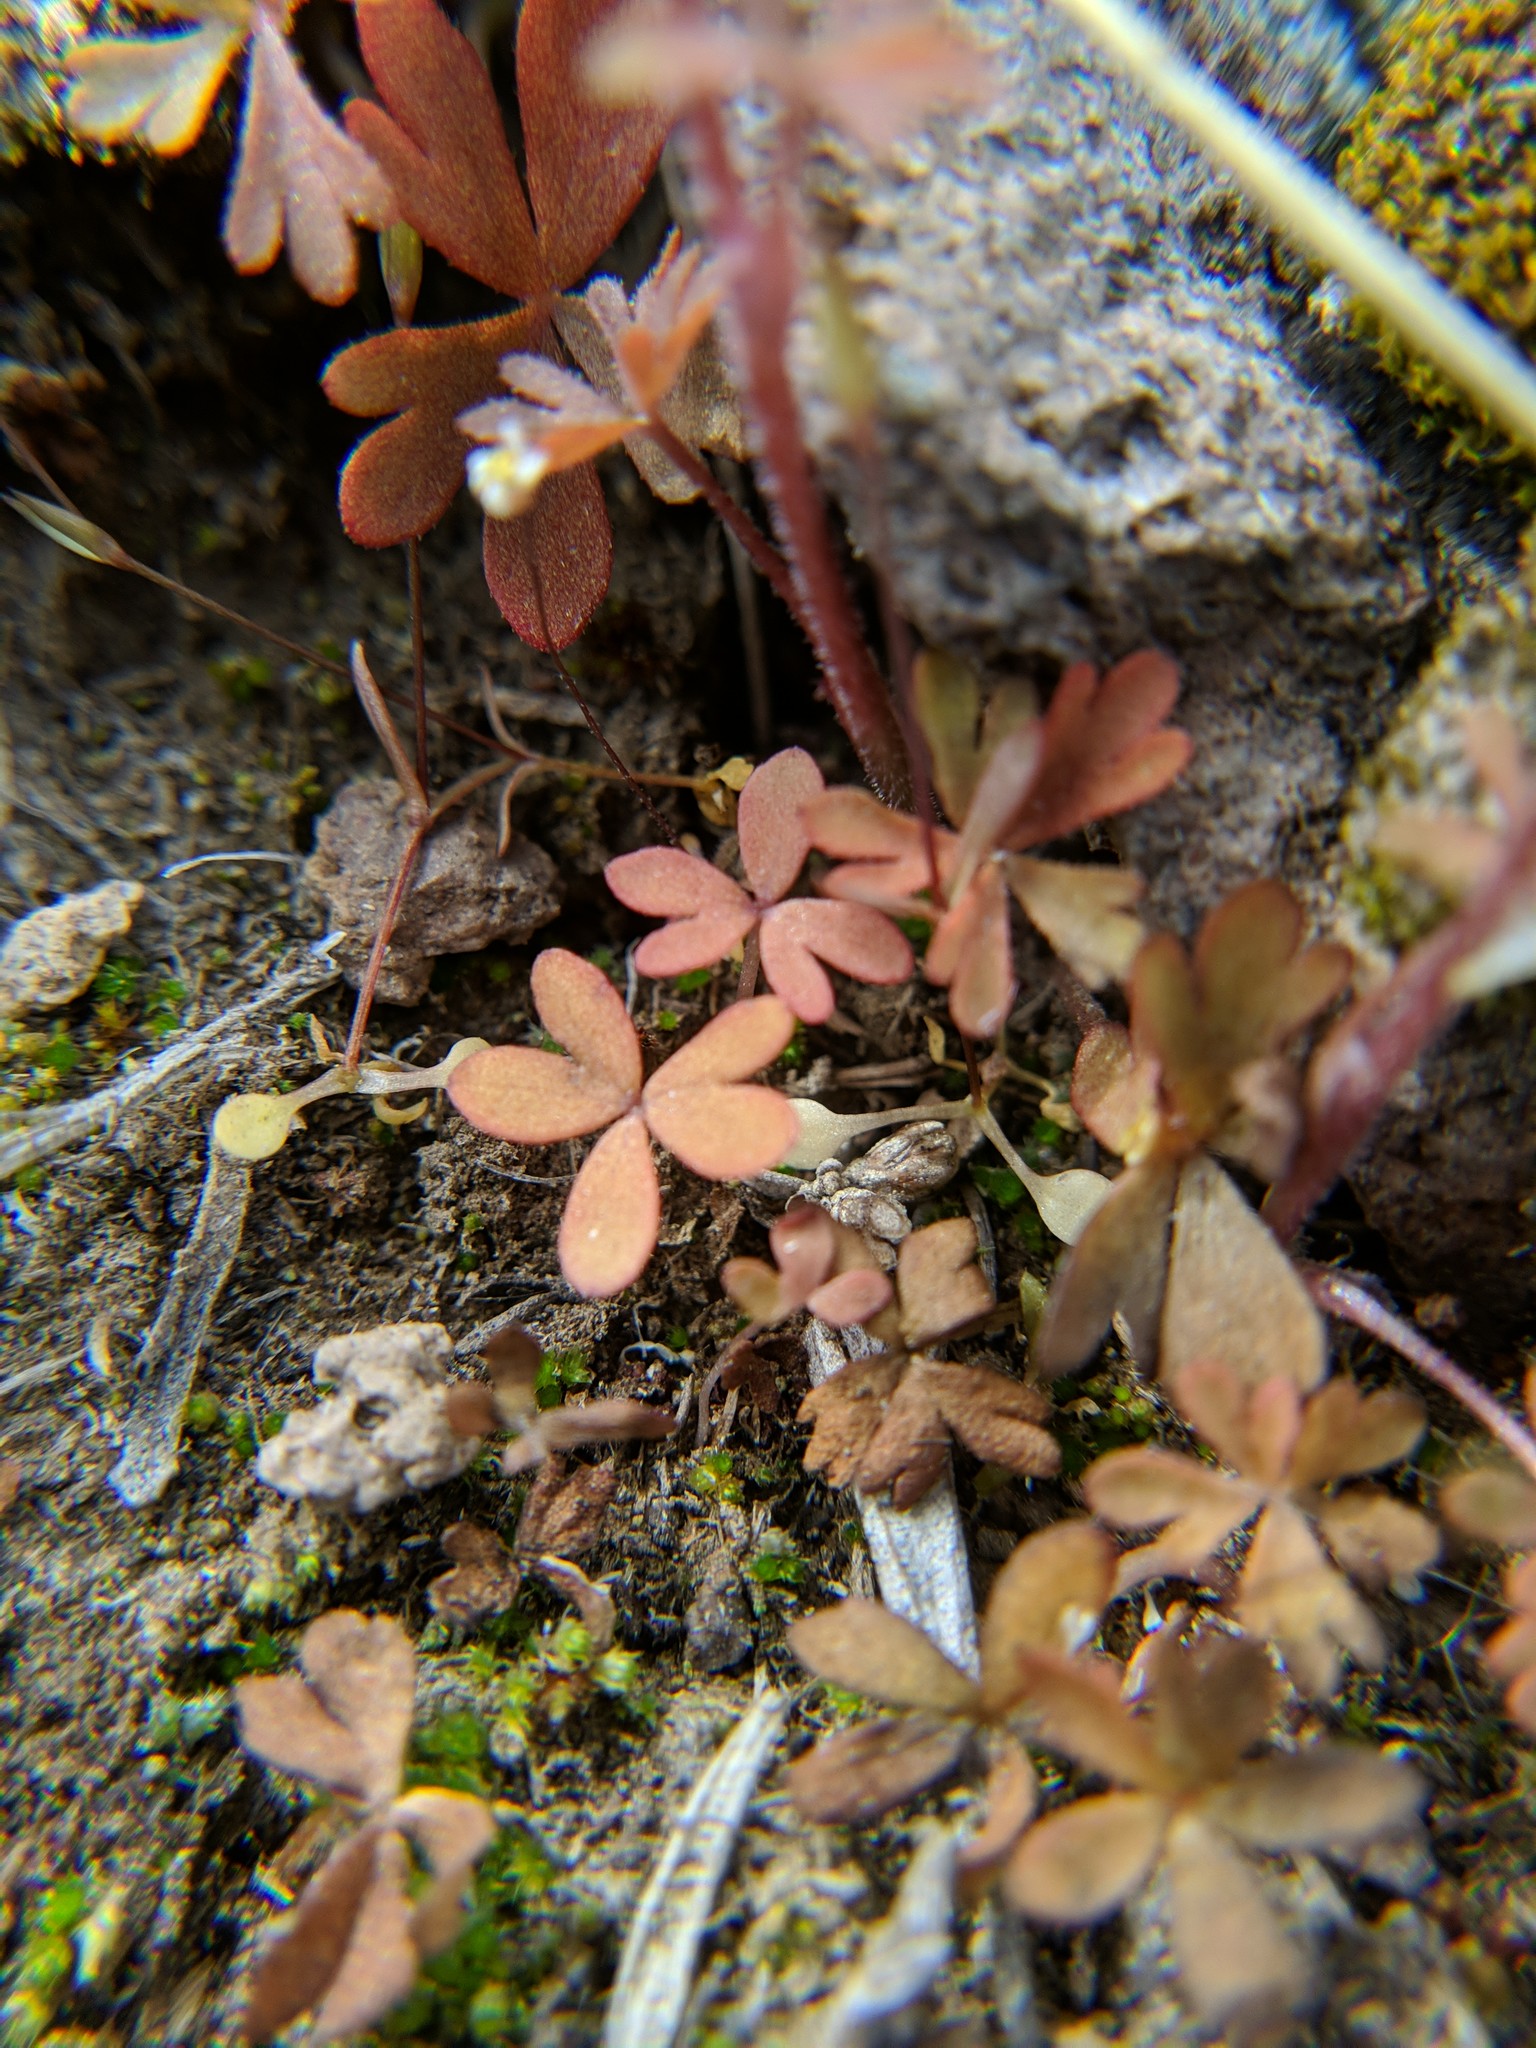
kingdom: Plantae
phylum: Tracheophyta
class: Magnoliopsida
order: Saxifragales
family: Saxifragaceae
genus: Lithophragma
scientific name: Lithophragma glabrum
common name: Bulbous prairie-star
